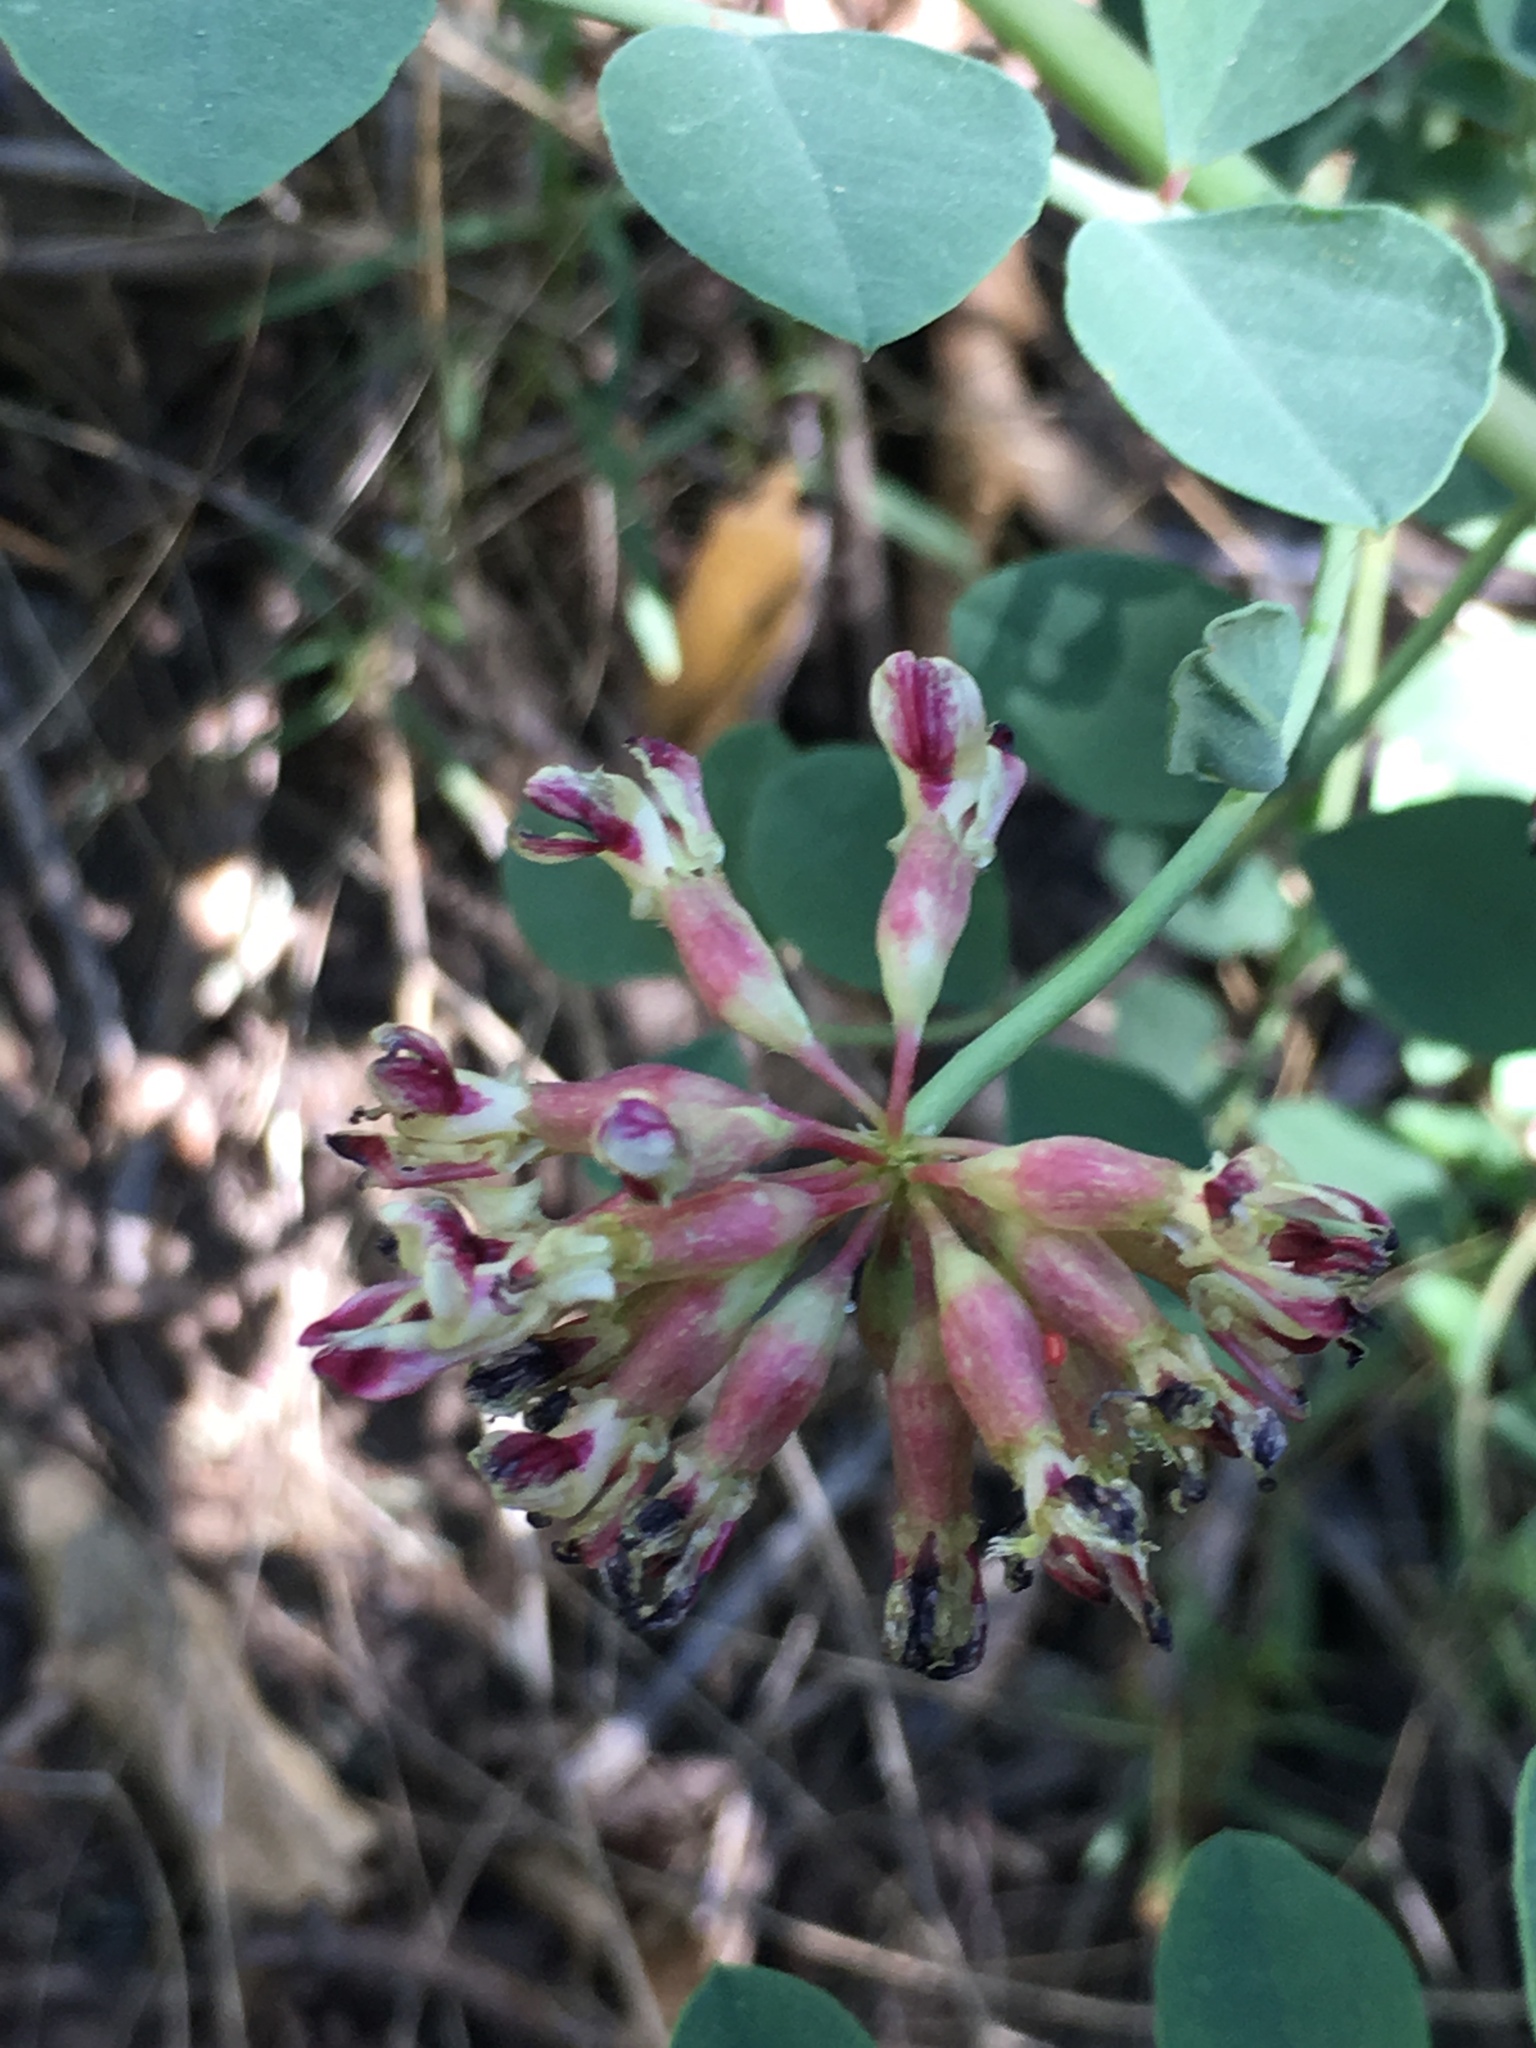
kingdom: Plantae
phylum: Tracheophyta
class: Magnoliopsida
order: Fabales
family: Fabaceae
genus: Hosackia
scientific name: Hosackia crassifolia
